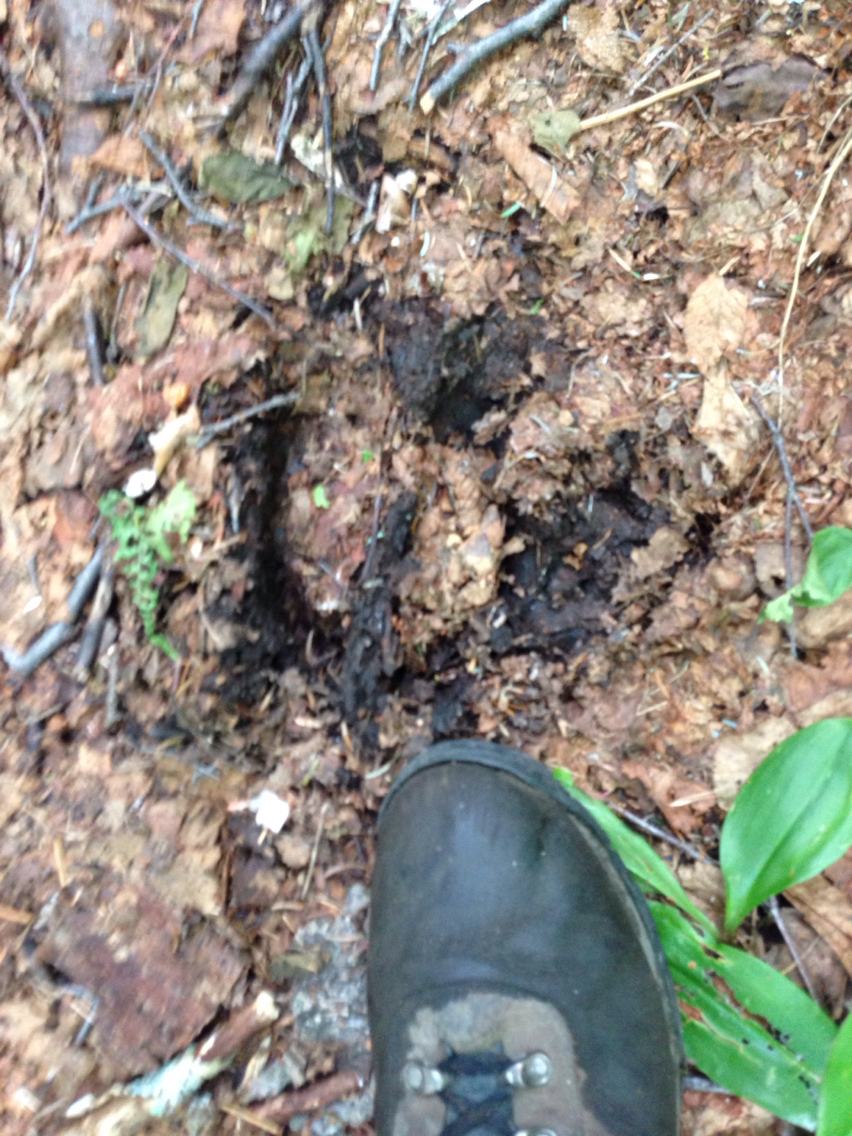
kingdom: Animalia
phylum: Chordata
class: Mammalia
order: Artiodactyla
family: Cervidae
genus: Alces
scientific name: Alces alces
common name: Moose
